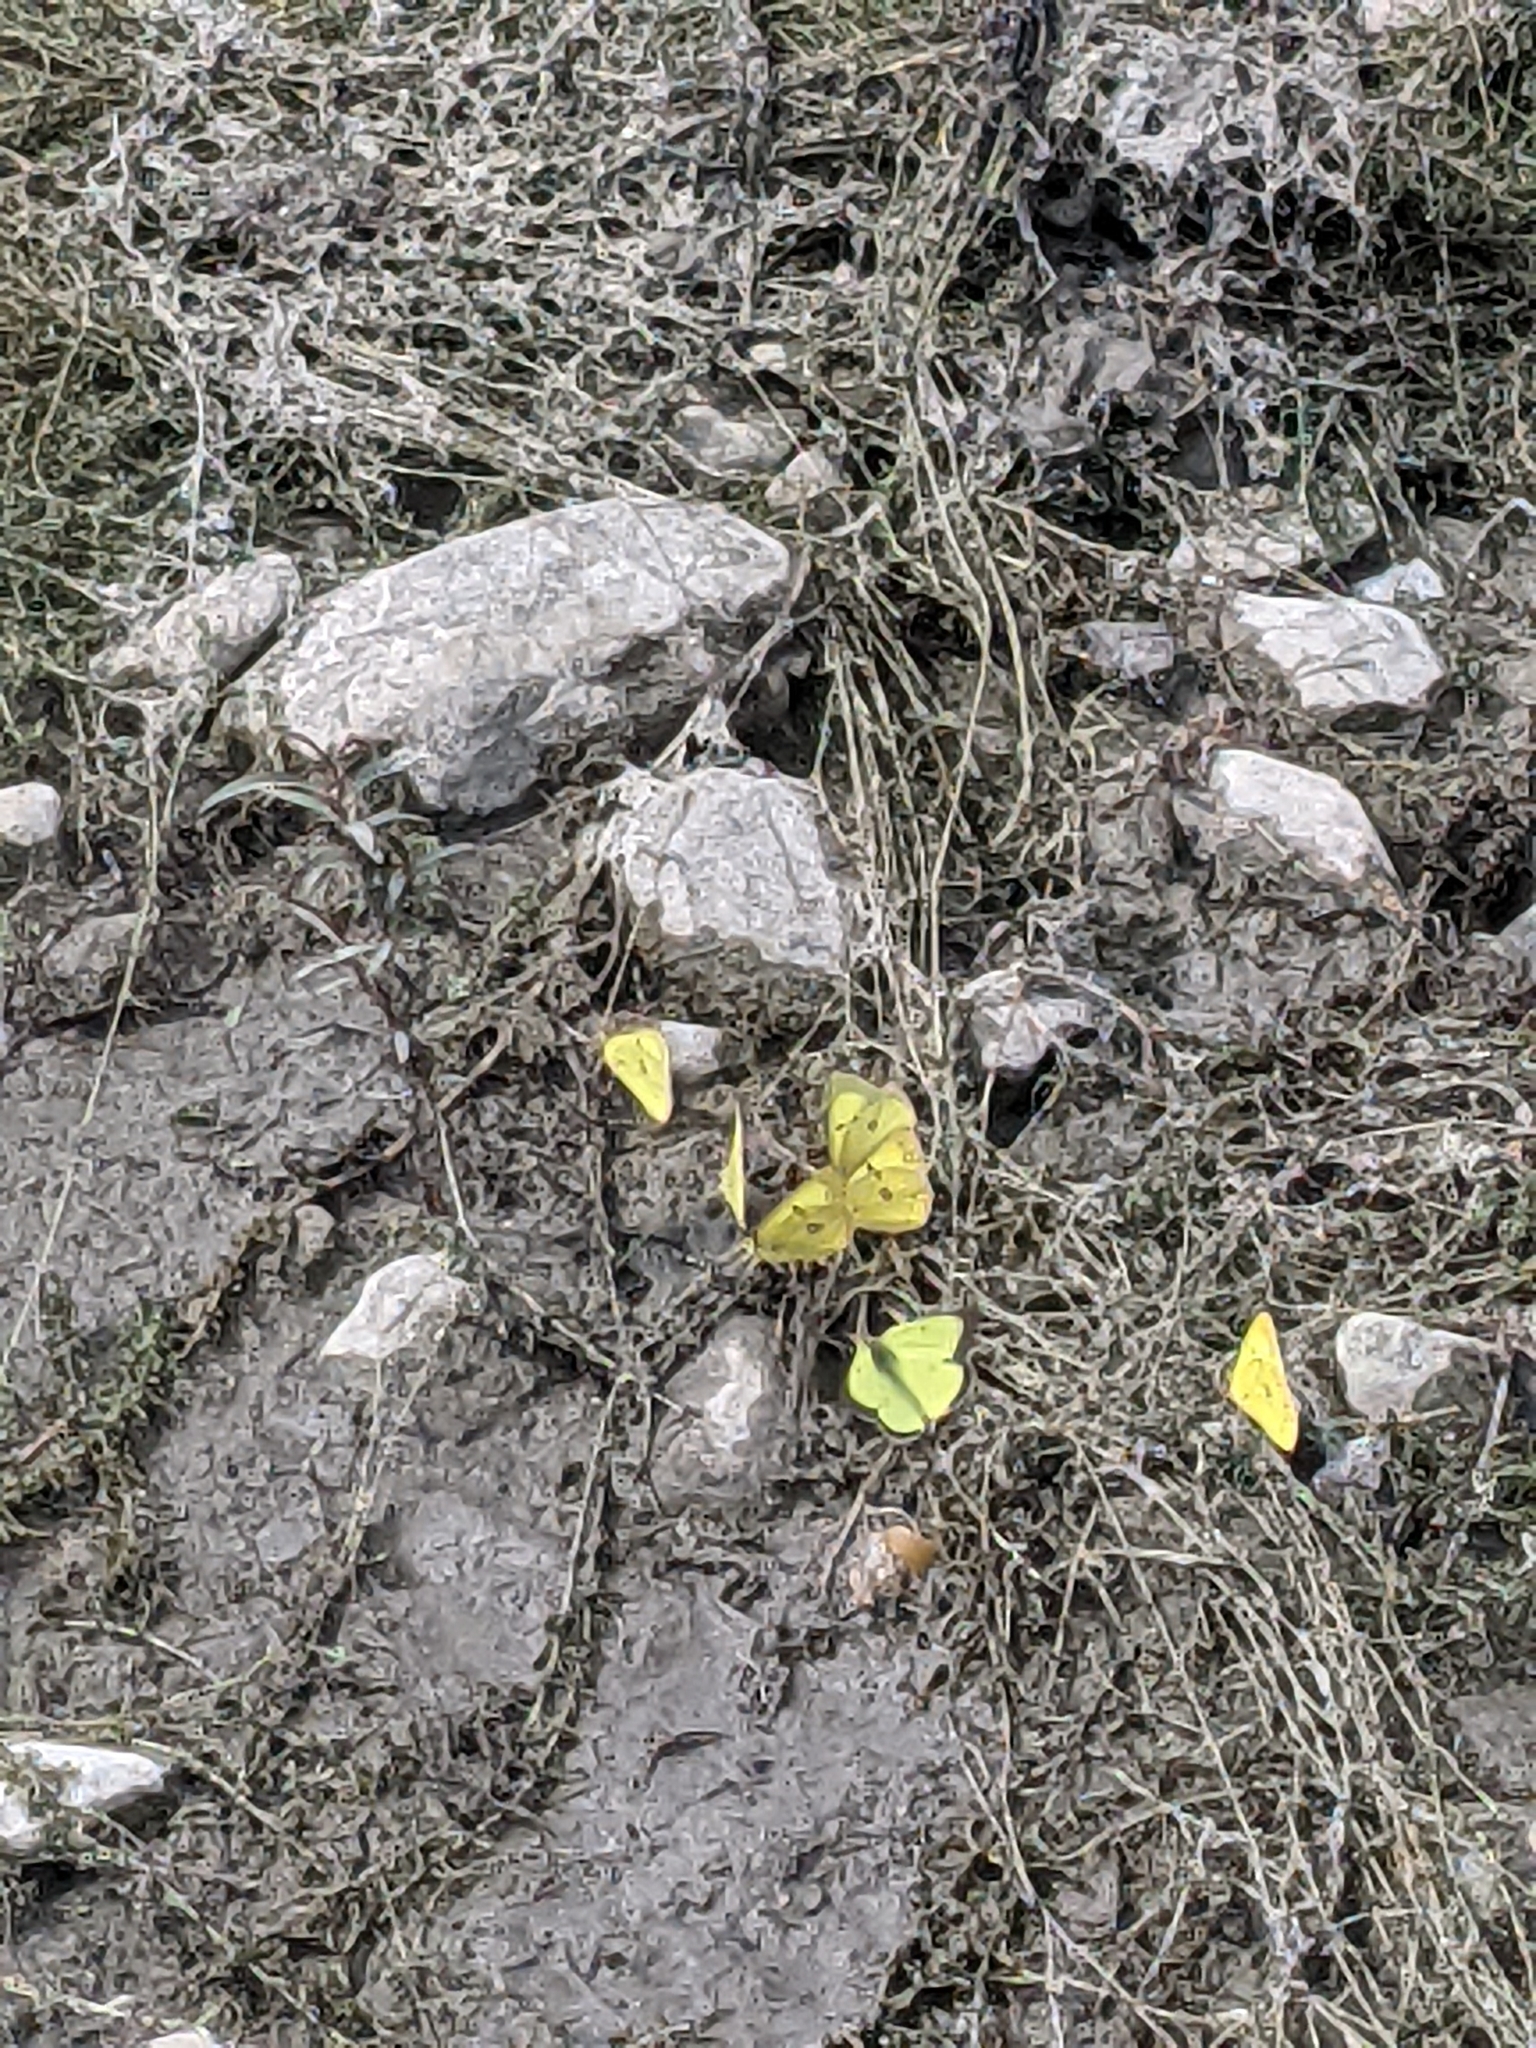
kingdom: Animalia
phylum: Arthropoda
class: Insecta
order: Lepidoptera
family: Pieridae
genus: Colias
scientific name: Colias philodice
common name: Clouded sulphur
